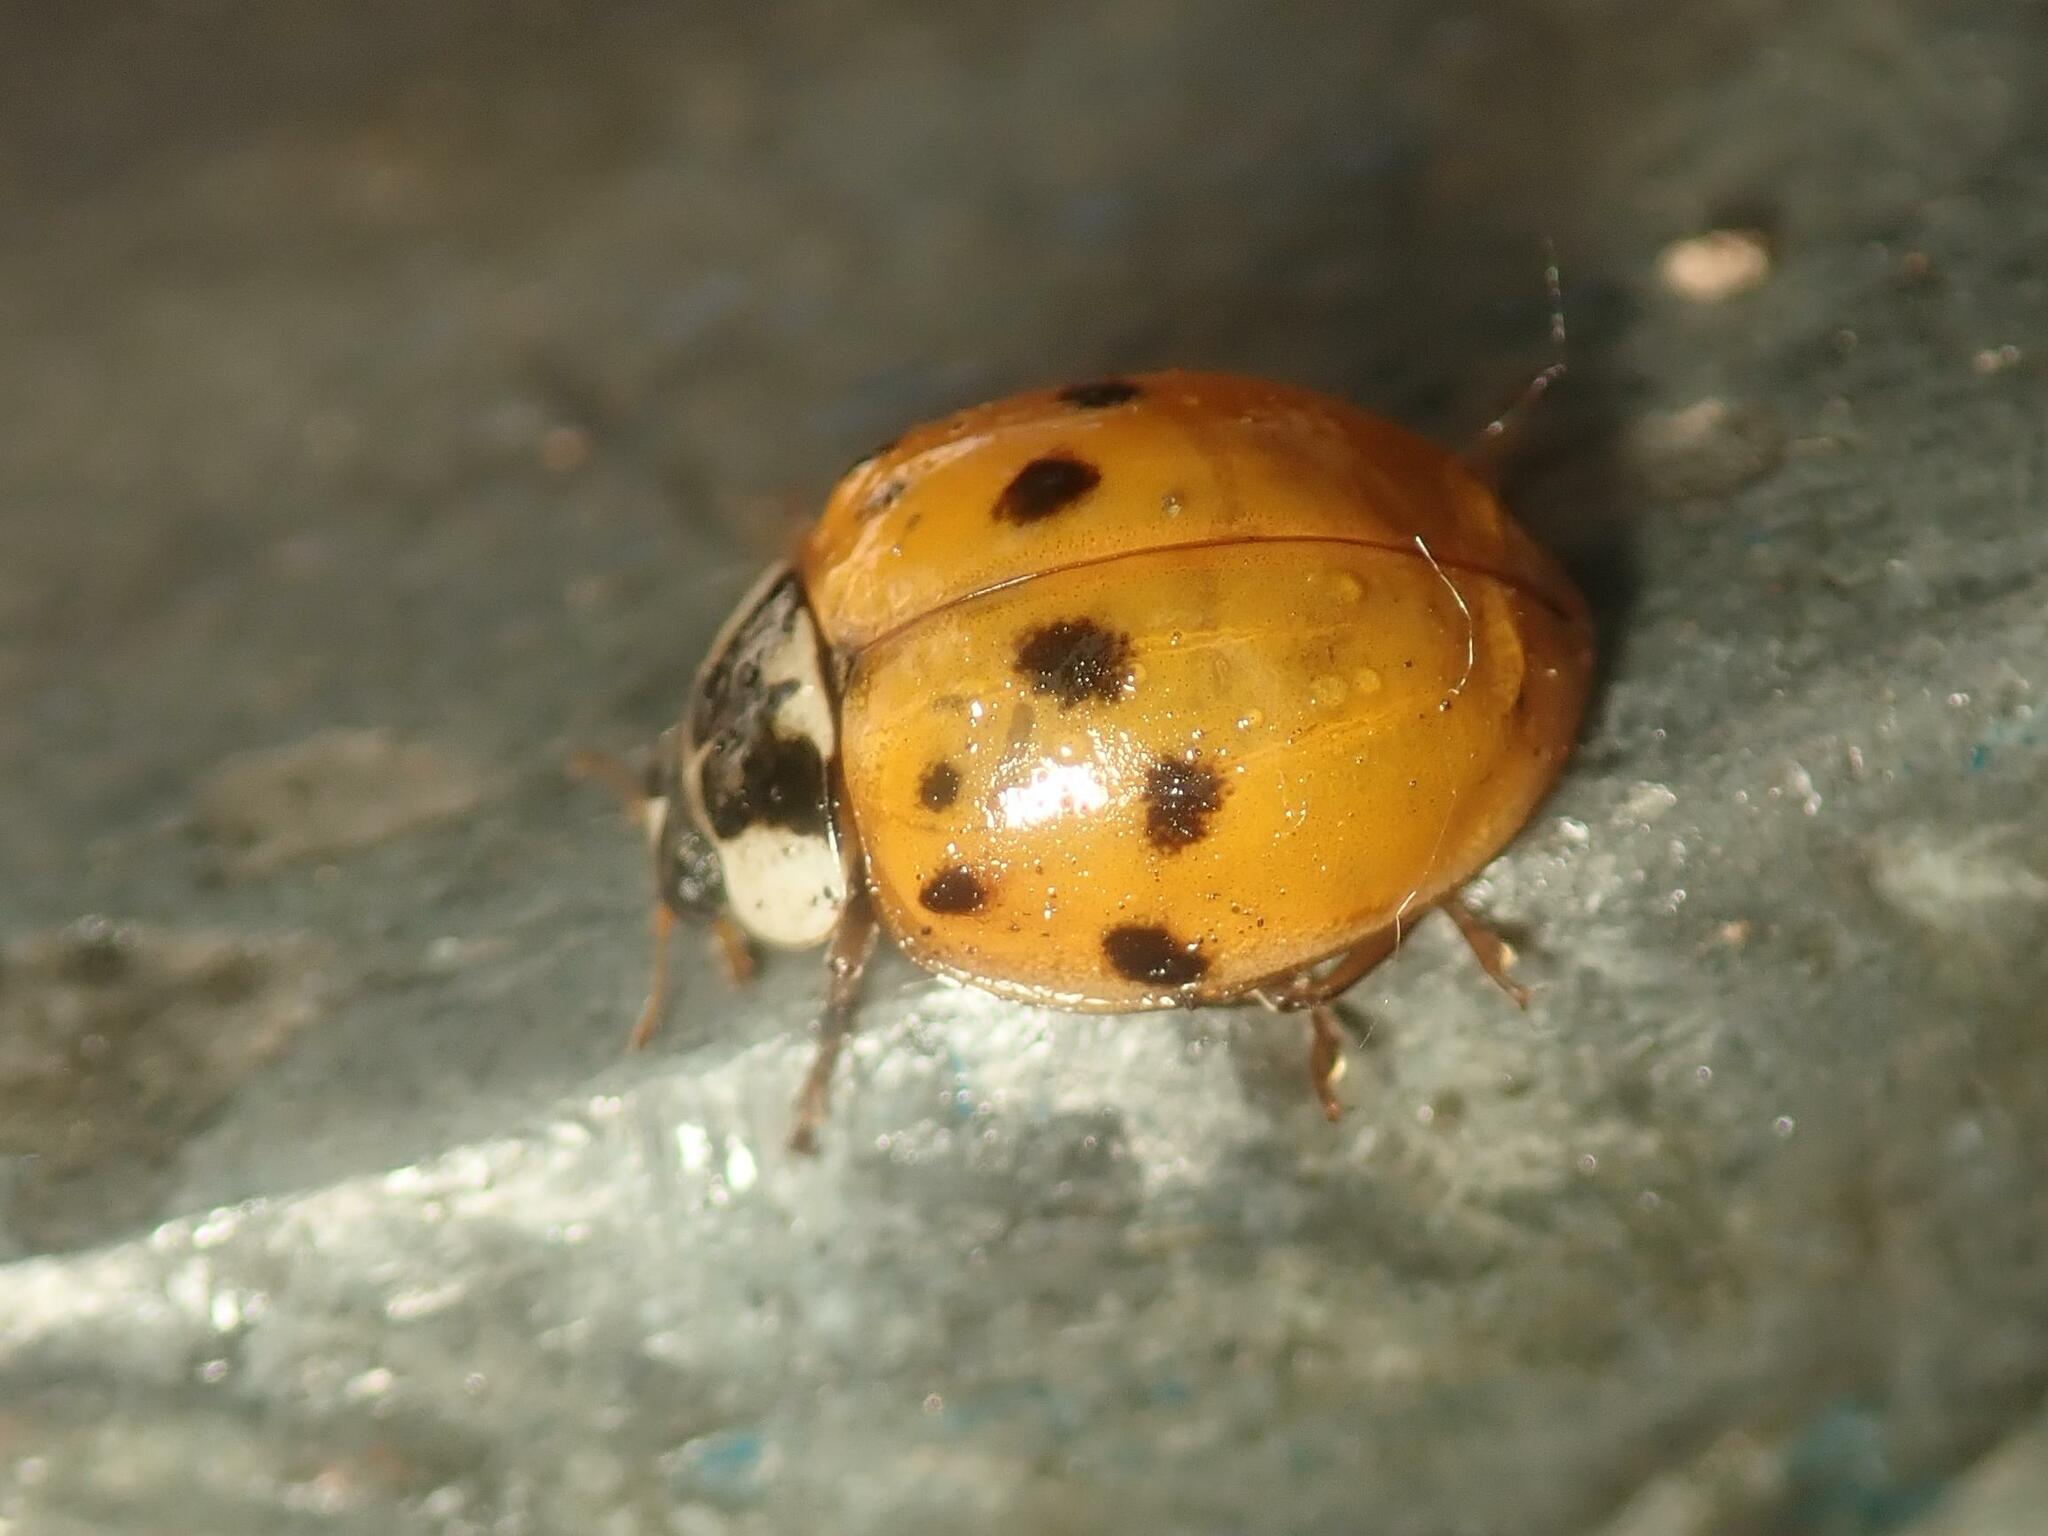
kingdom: Animalia
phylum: Arthropoda
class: Insecta
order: Coleoptera
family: Coccinellidae
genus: Harmonia
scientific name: Harmonia axyridis
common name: Harlequin ladybird
